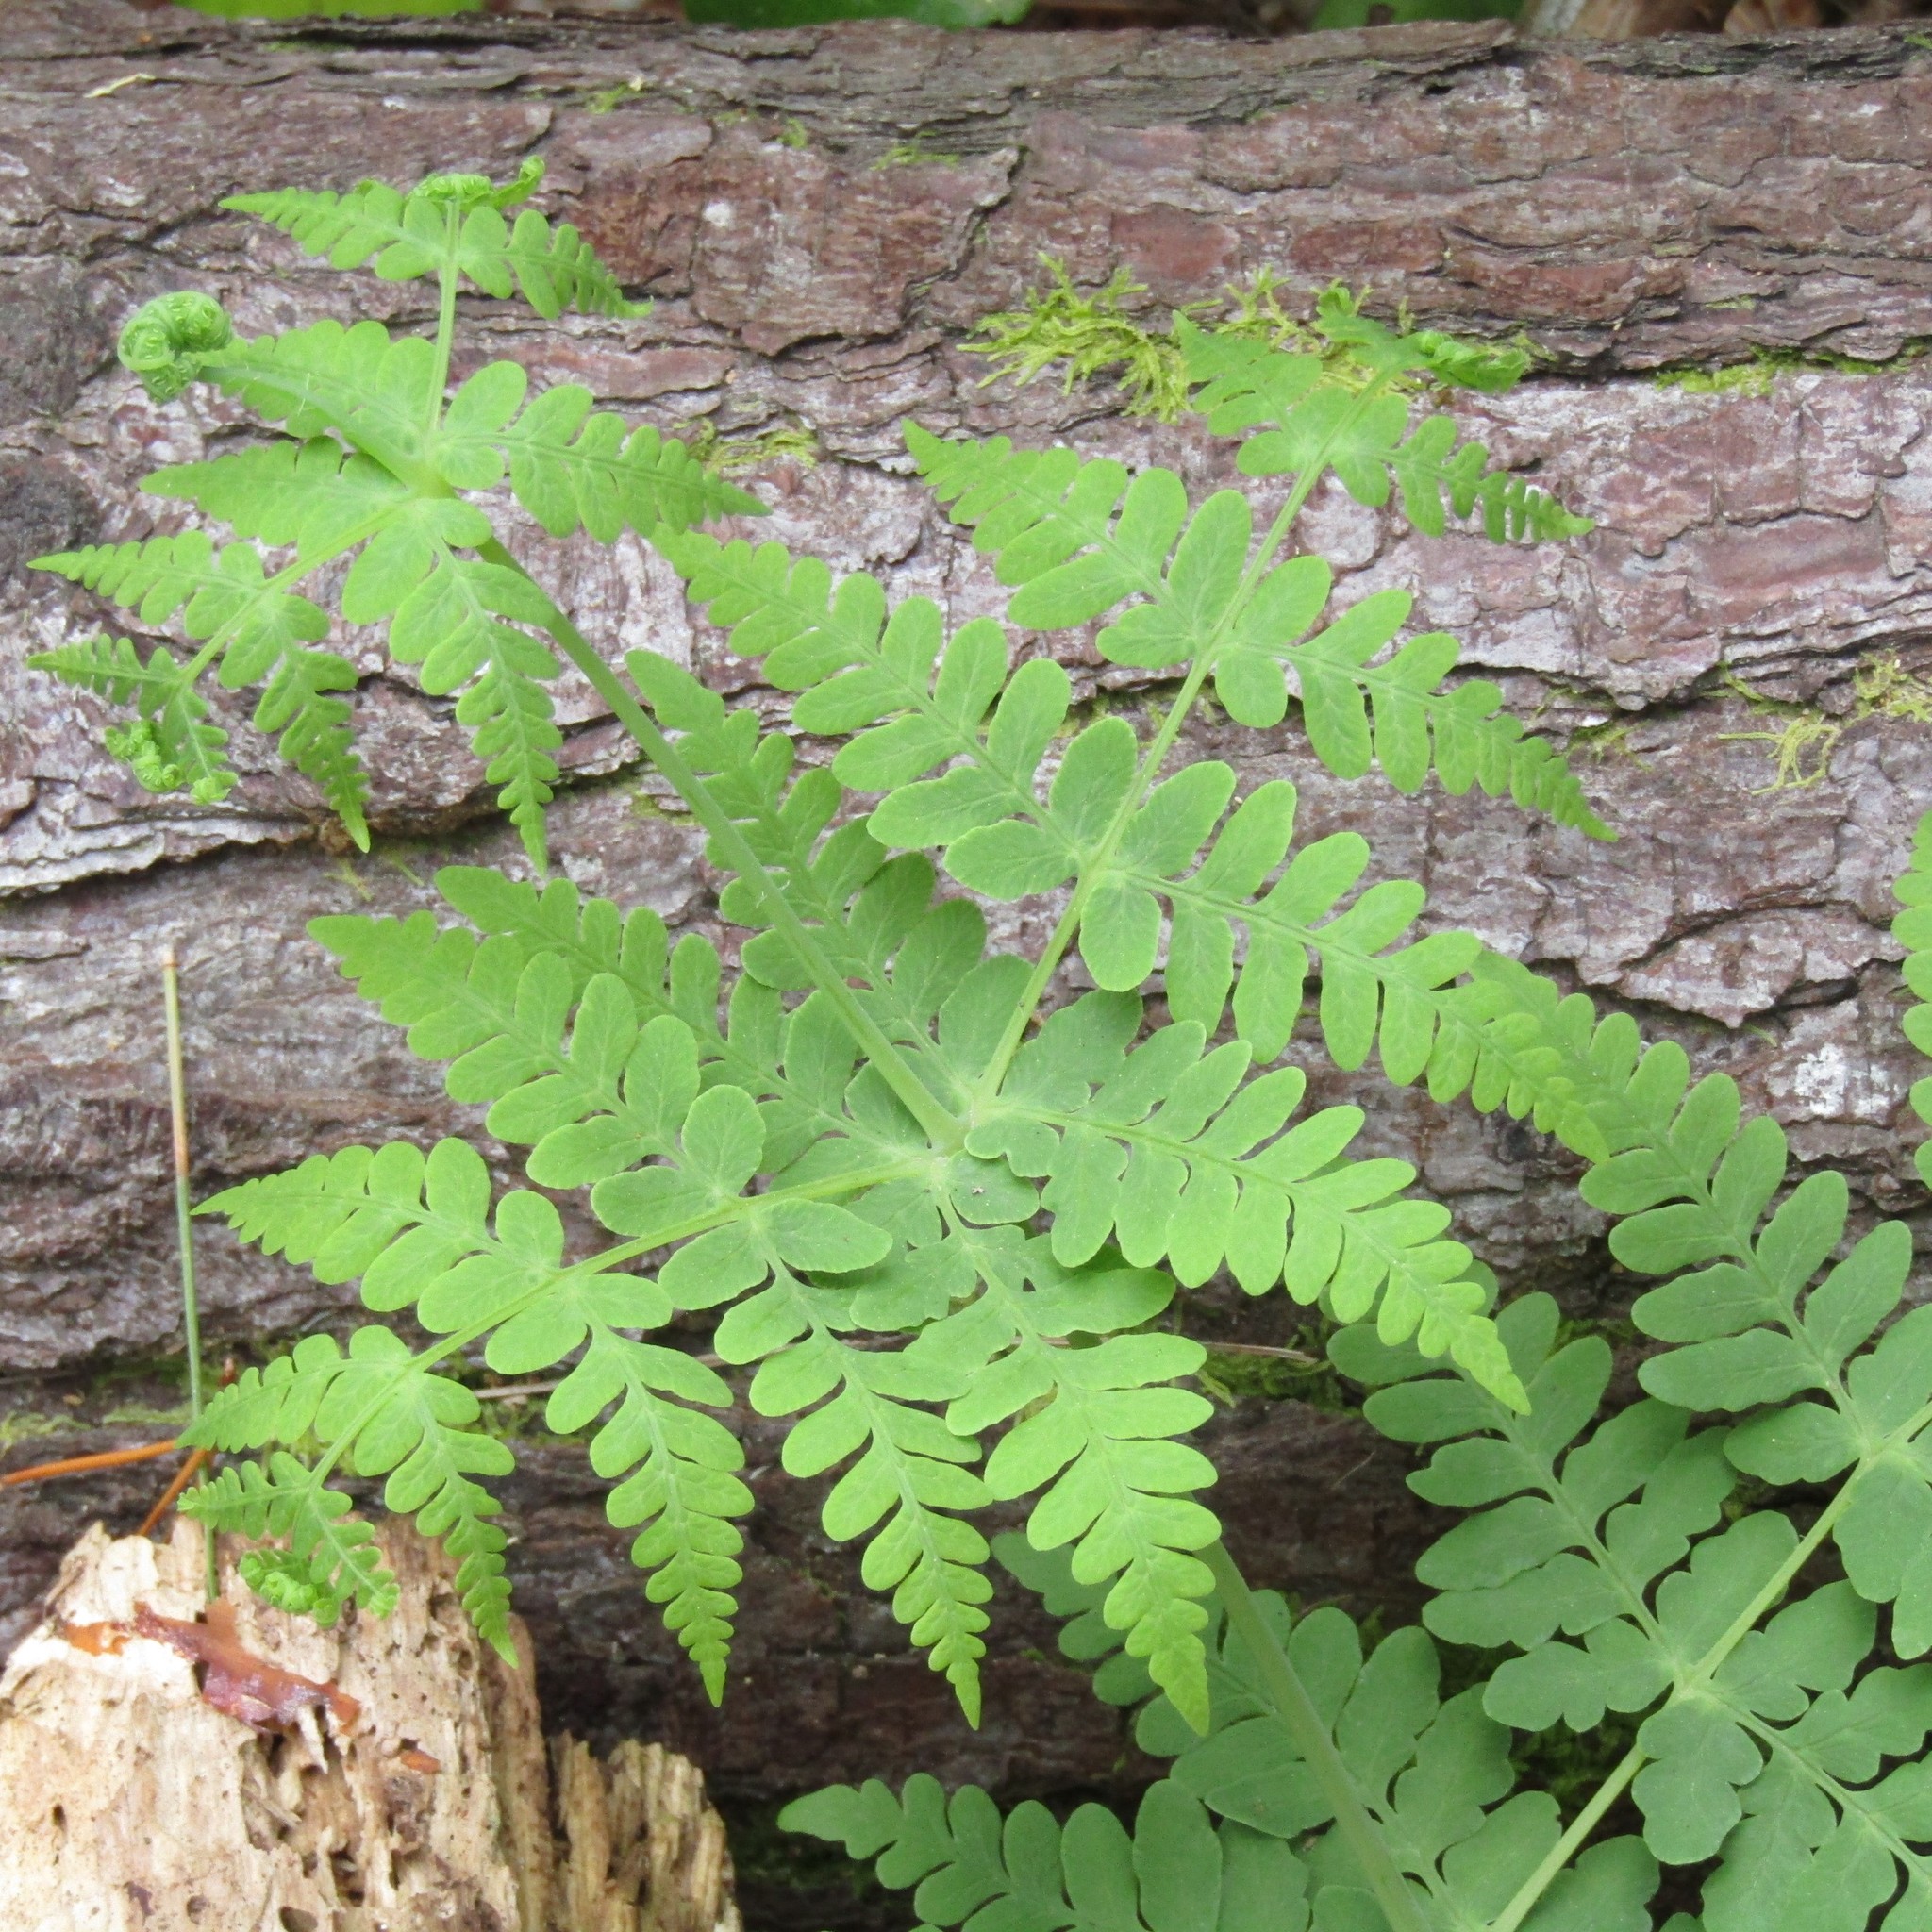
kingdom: Plantae
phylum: Tracheophyta
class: Polypodiopsida
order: Polypodiales
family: Dennstaedtiaceae
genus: Histiopteris
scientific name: Histiopteris incisa
